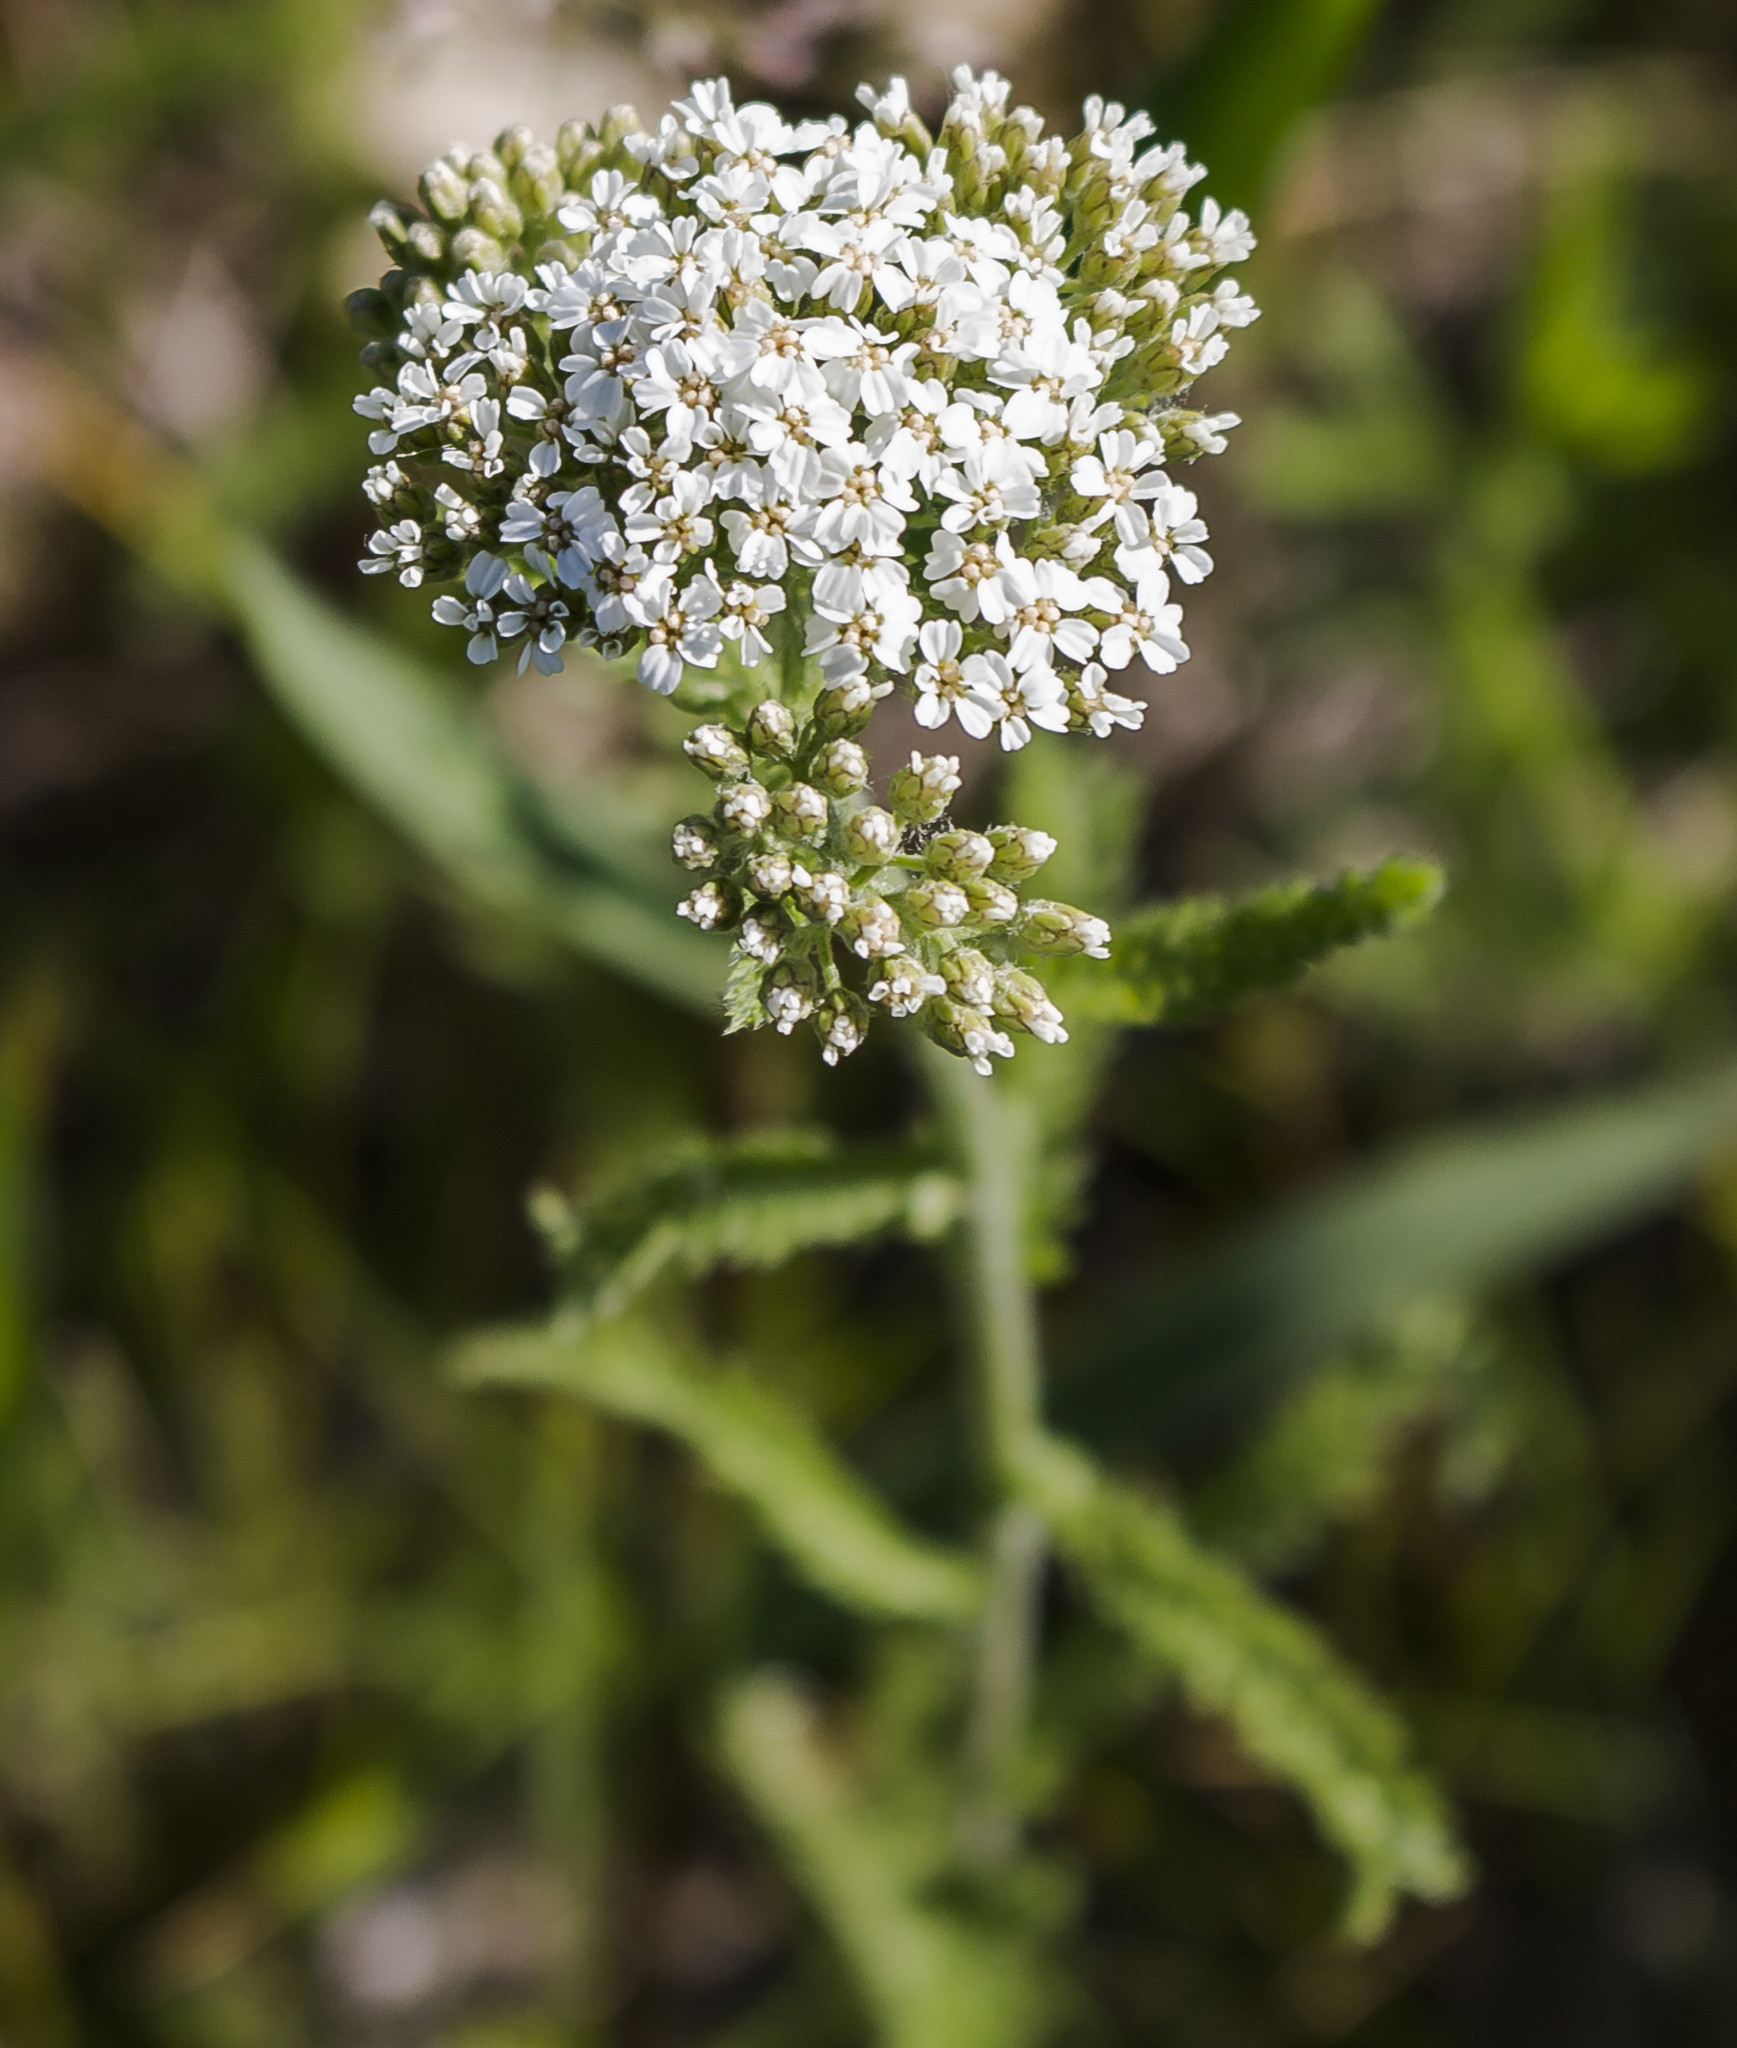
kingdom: Plantae
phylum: Tracheophyta
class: Magnoliopsida
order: Asterales
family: Asteraceae
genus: Achillea
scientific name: Achillea millefolium
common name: Yarrow
